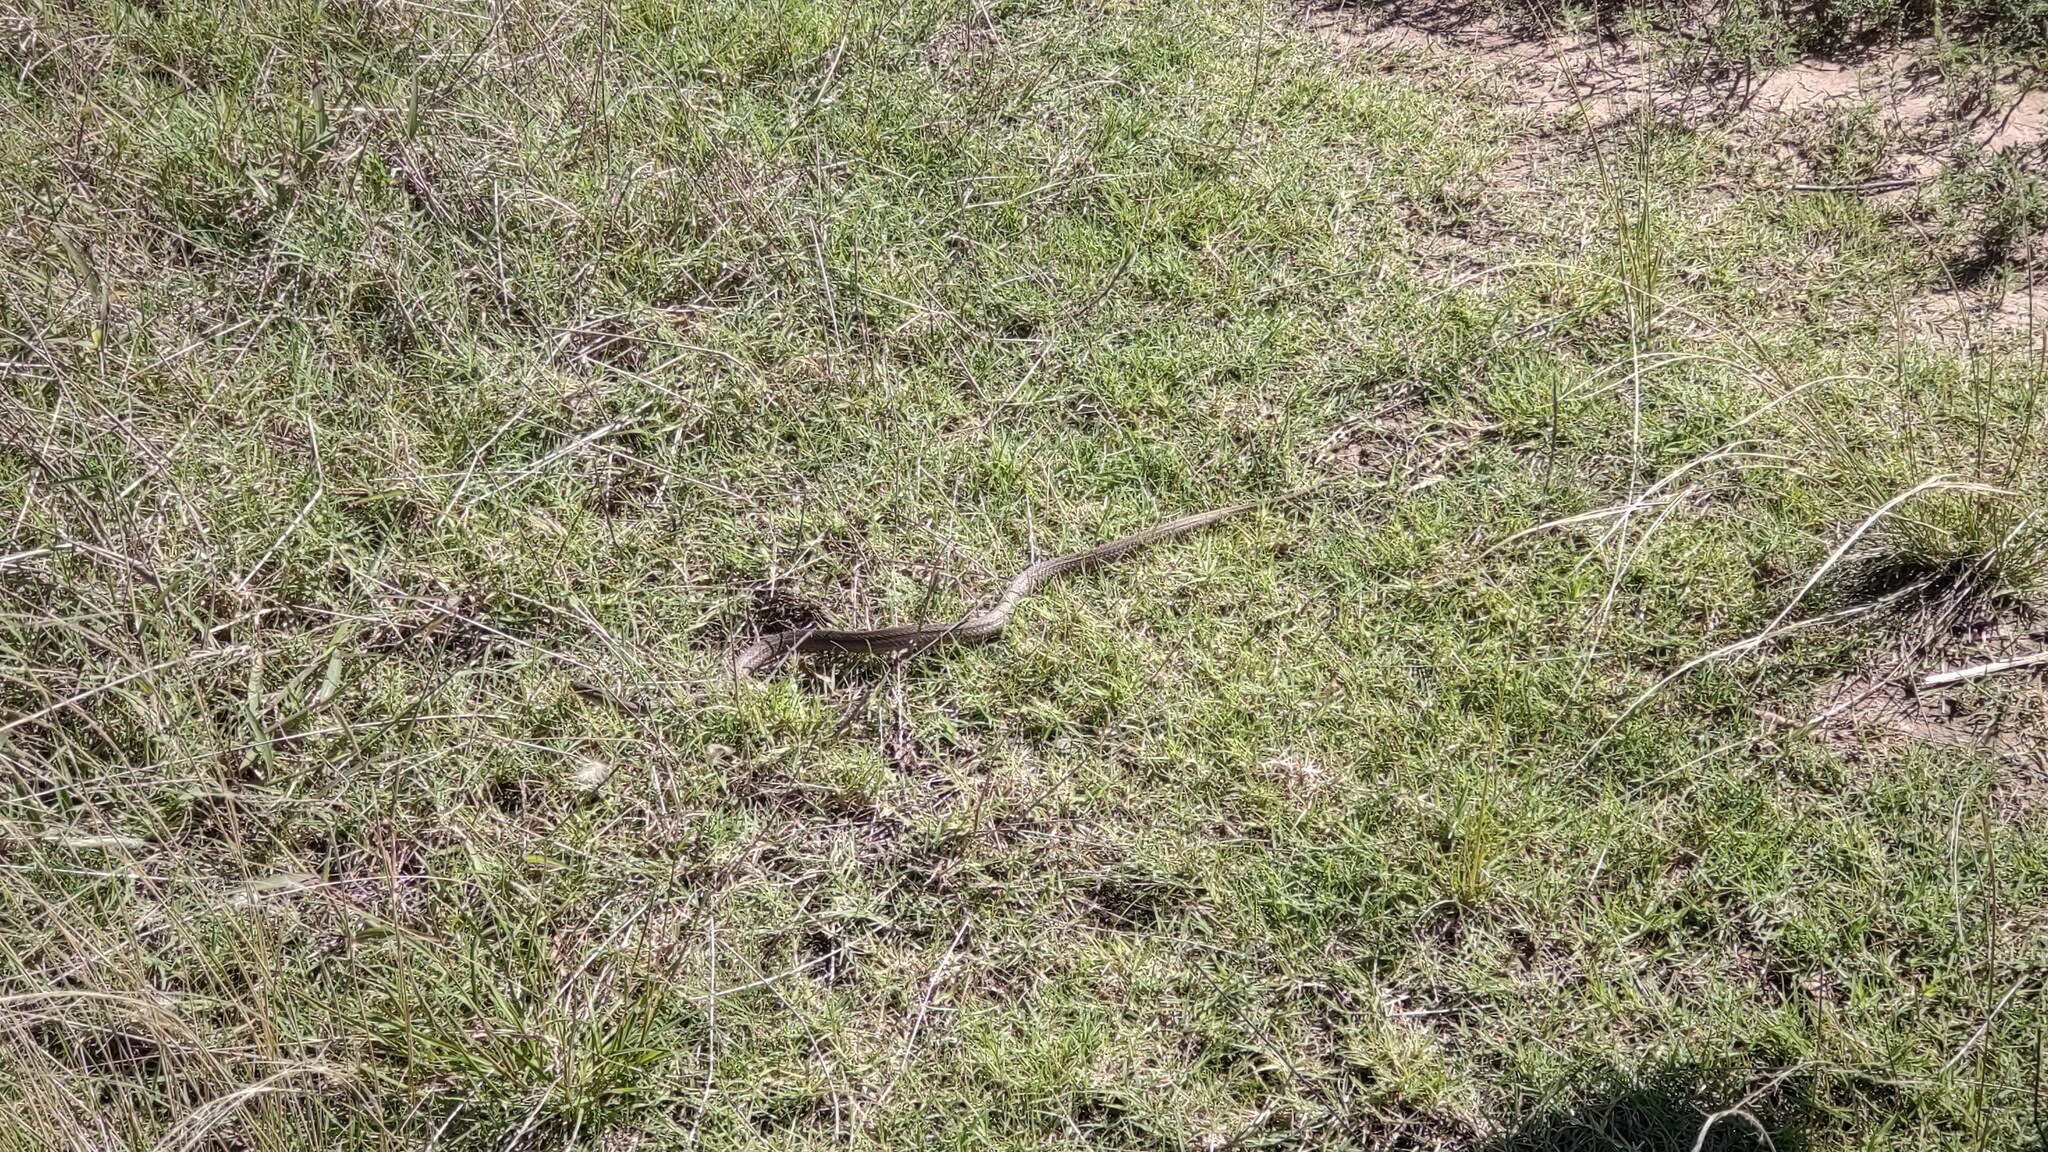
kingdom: Animalia
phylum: Chordata
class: Squamata
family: Colubridae
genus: Dryophylax
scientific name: Dryophylax
